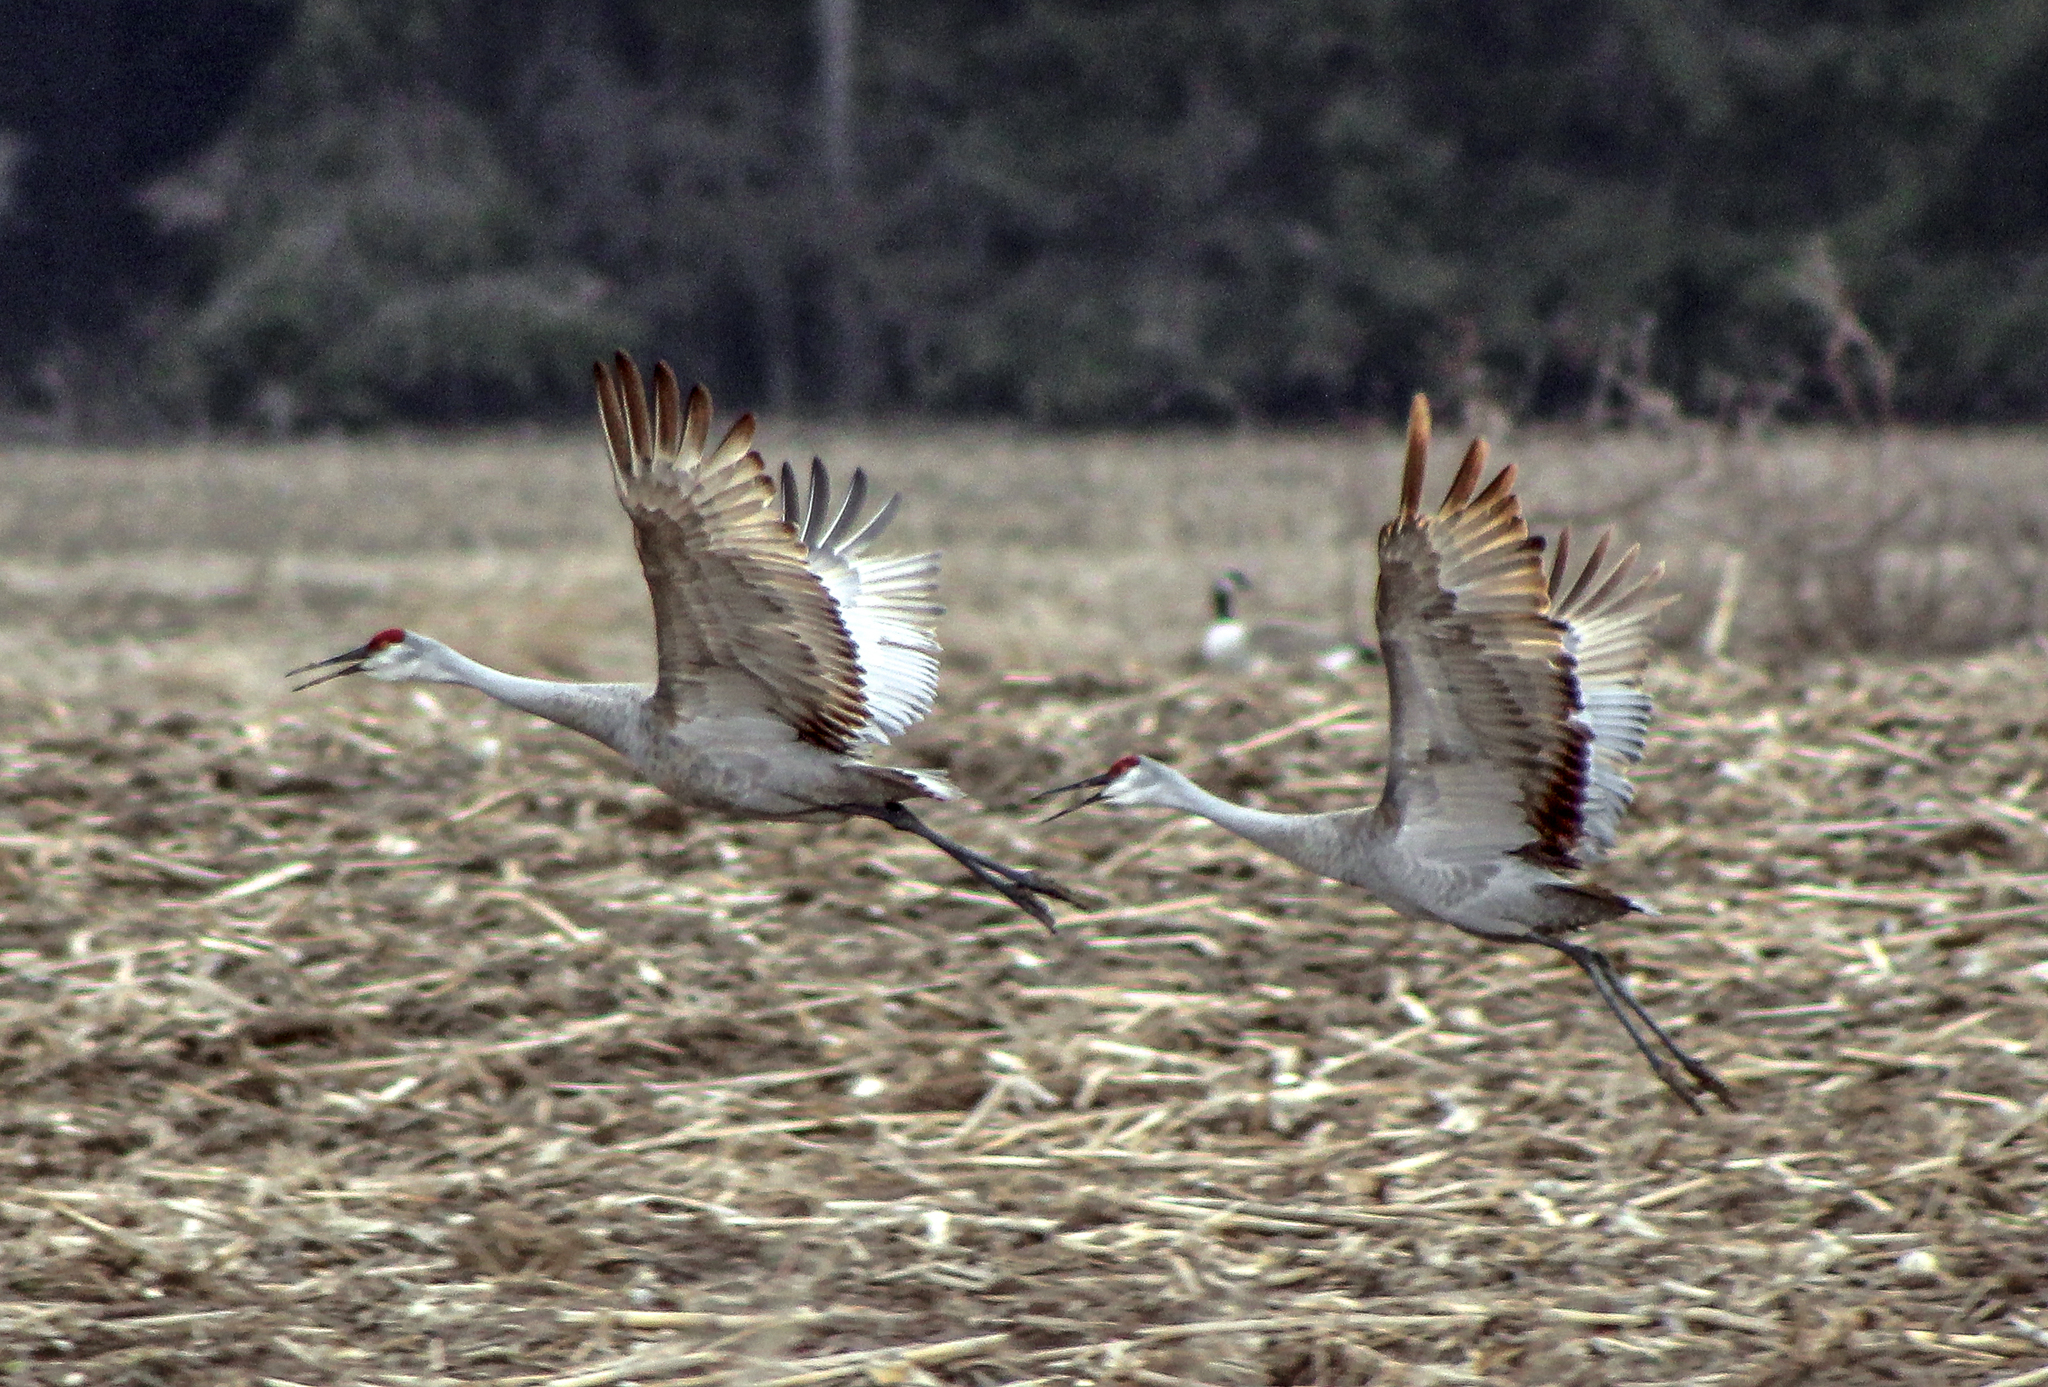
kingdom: Animalia
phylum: Chordata
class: Aves
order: Gruiformes
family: Gruidae
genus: Grus
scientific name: Grus canadensis
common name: Sandhill crane
